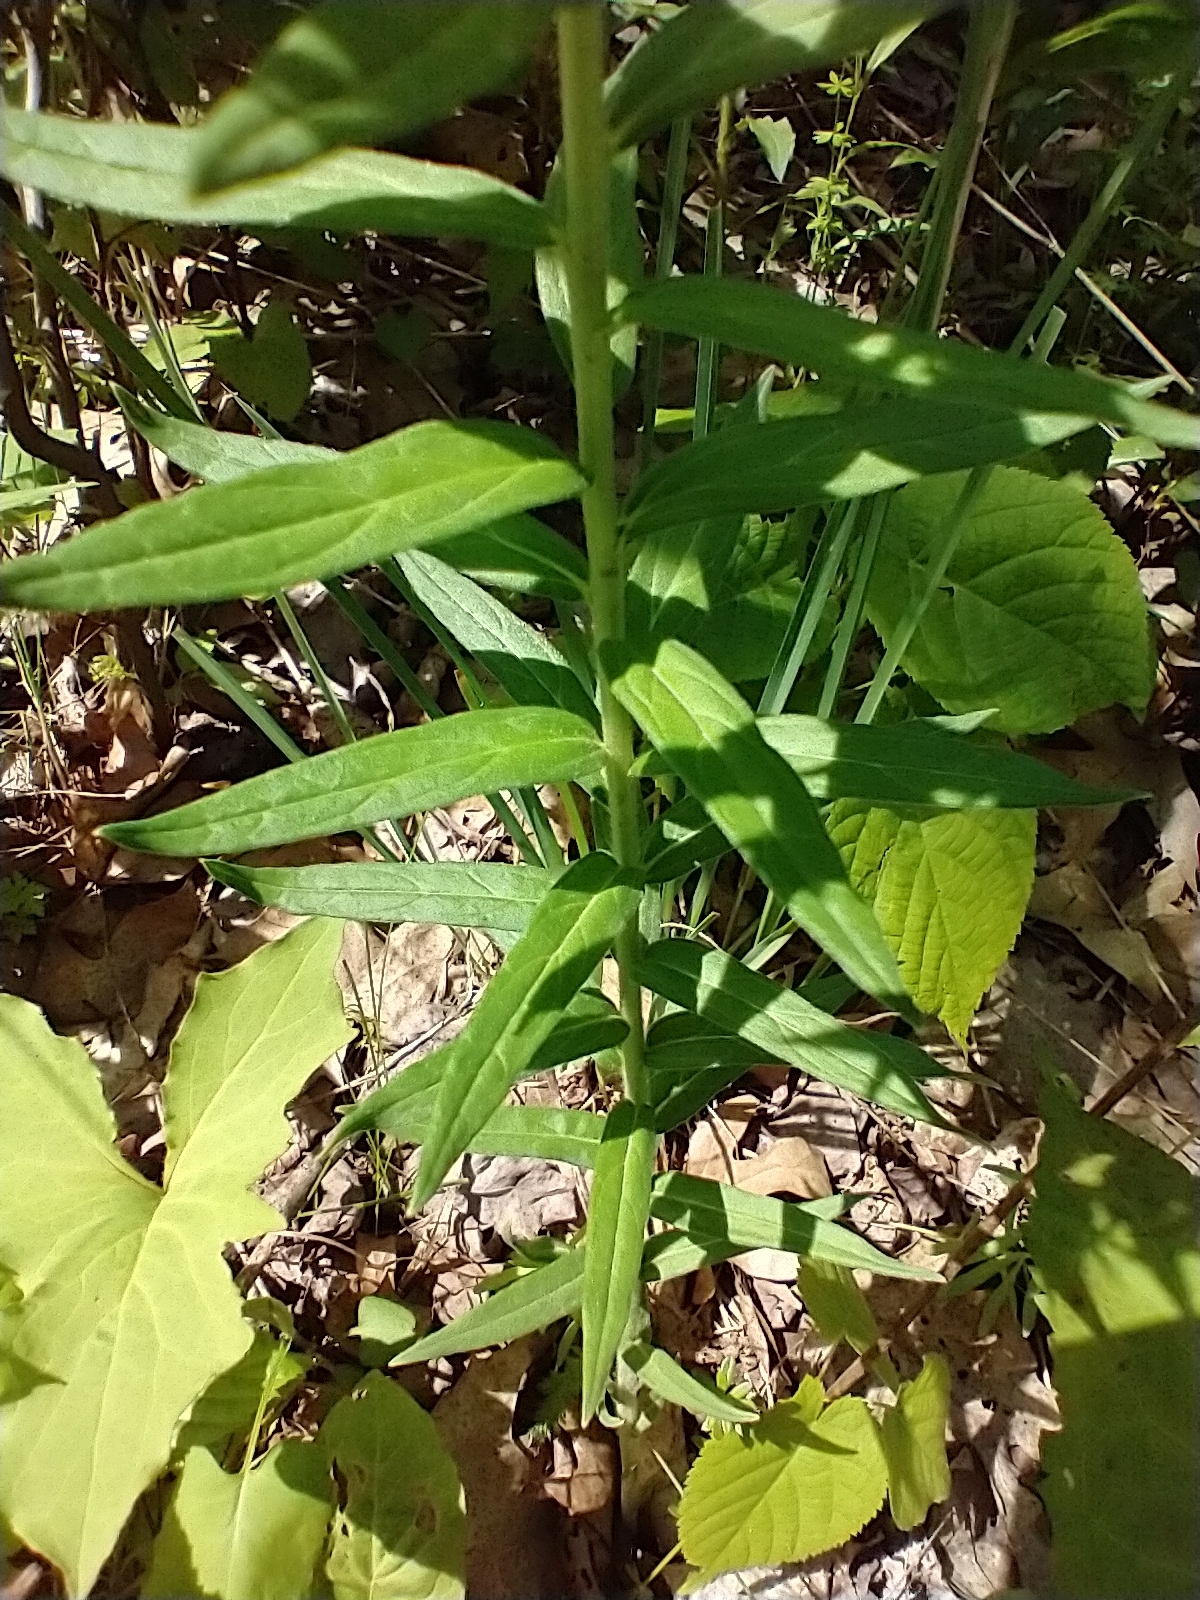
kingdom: Plantae
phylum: Tracheophyta
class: Magnoliopsida
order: Boraginales
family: Boraginaceae
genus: Lithospermum
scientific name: Lithospermum officinale
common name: Common gromwell
